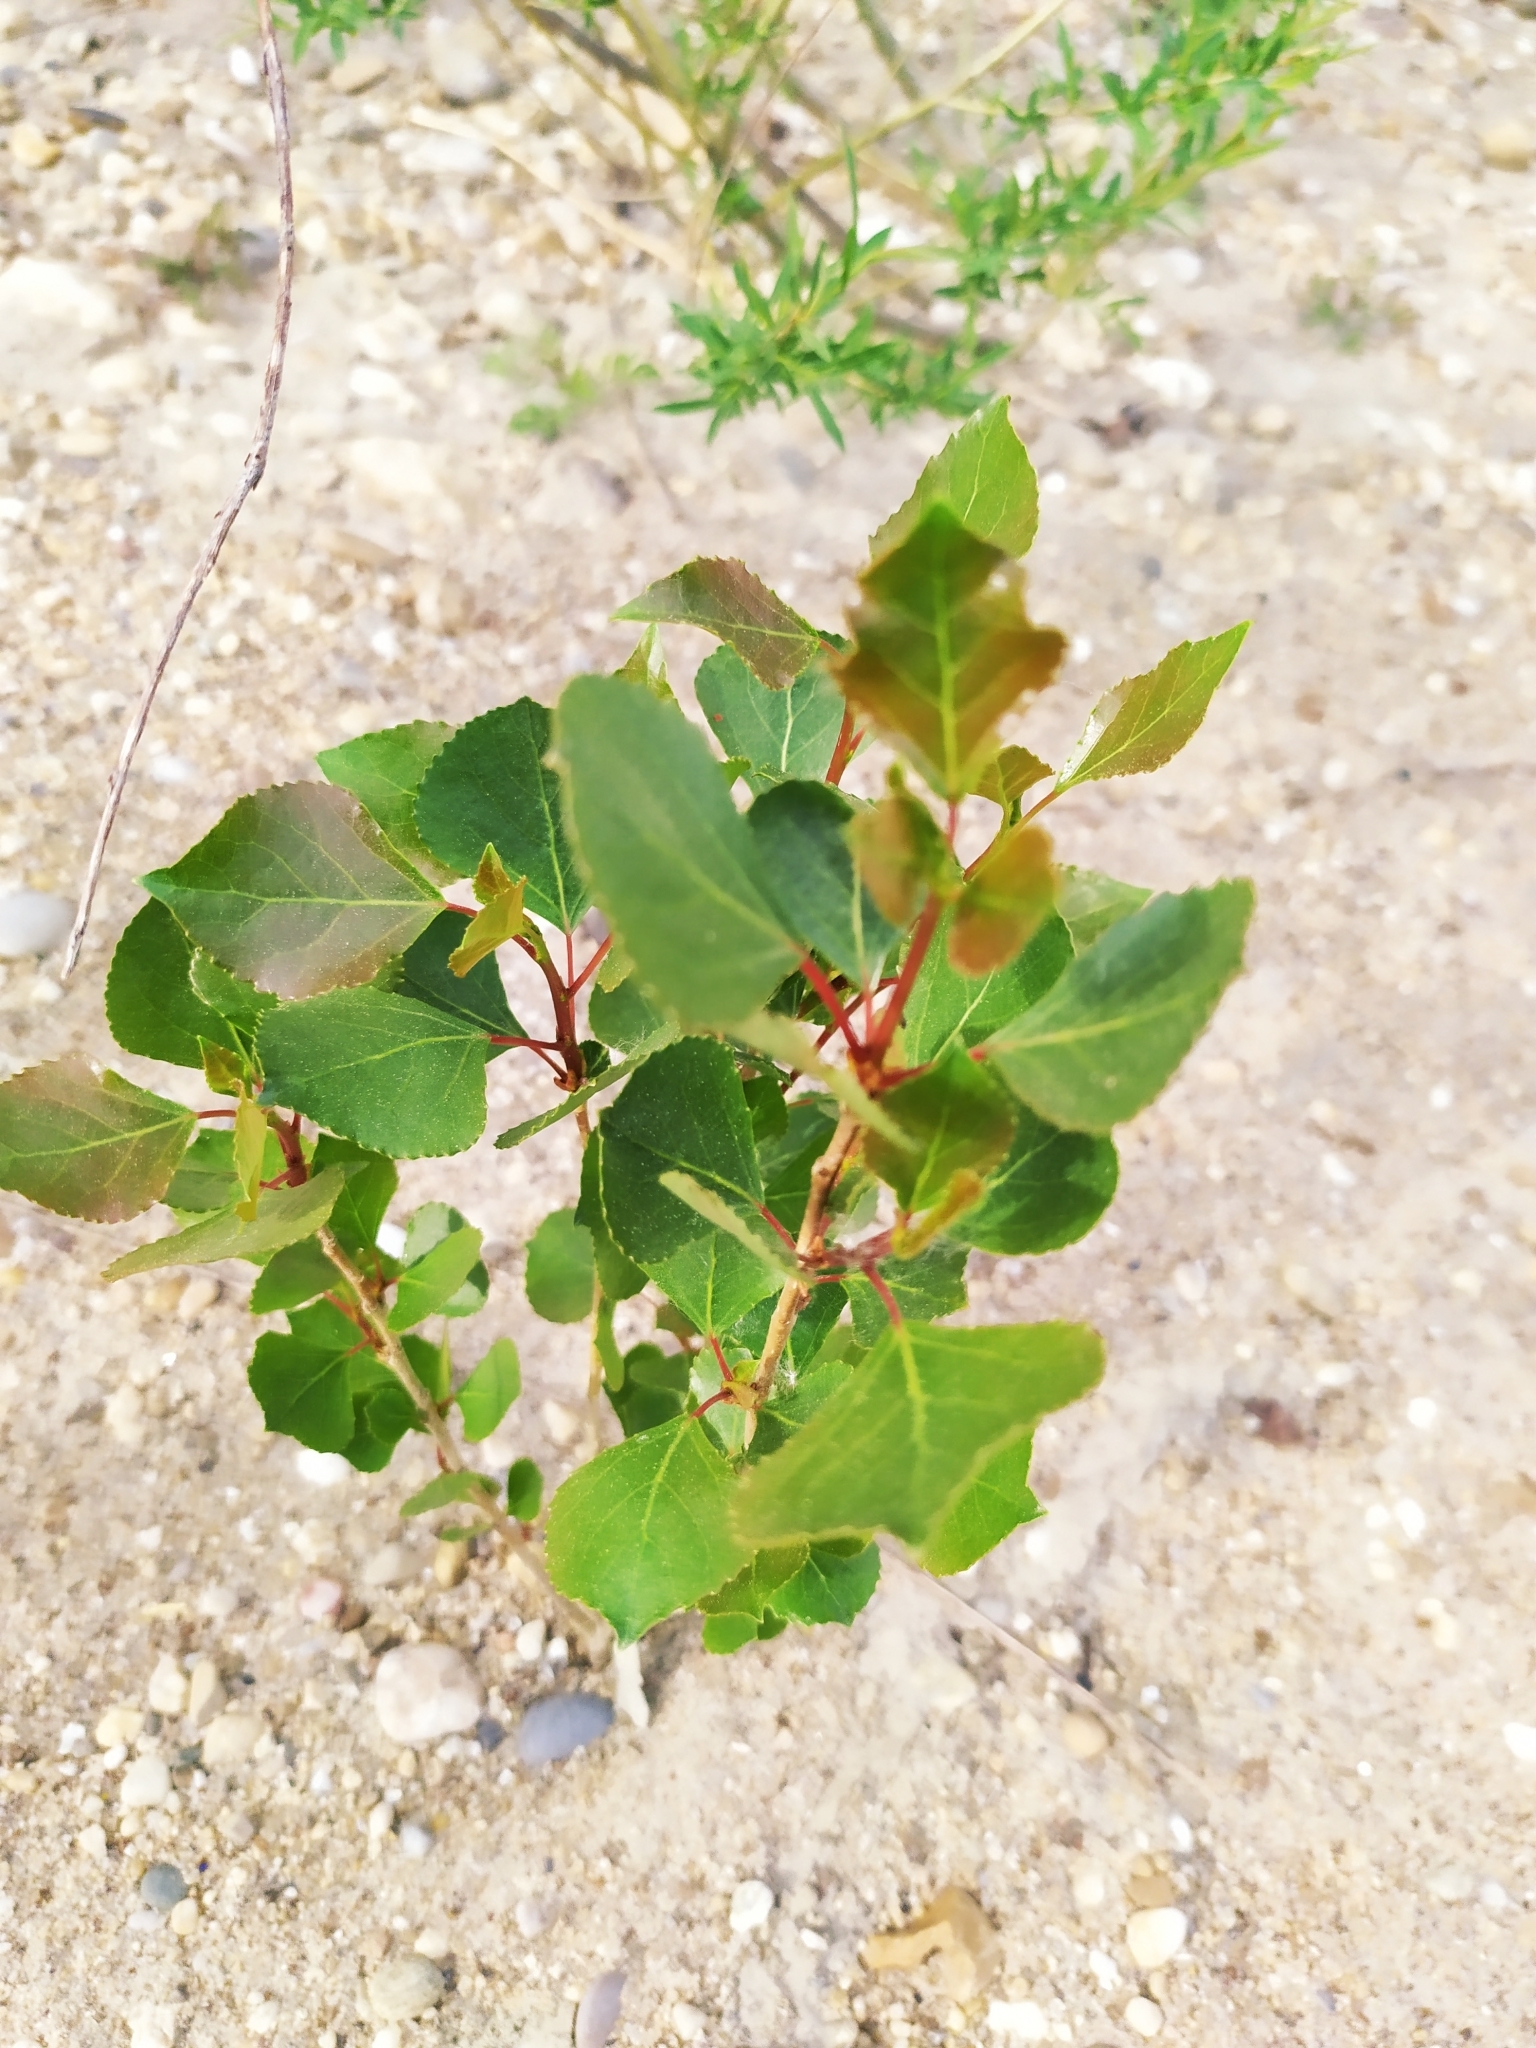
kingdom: Plantae
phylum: Tracheophyta
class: Magnoliopsida
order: Malpighiales
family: Salicaceae
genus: Populus
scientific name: Populus nigra
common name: Black poplar
